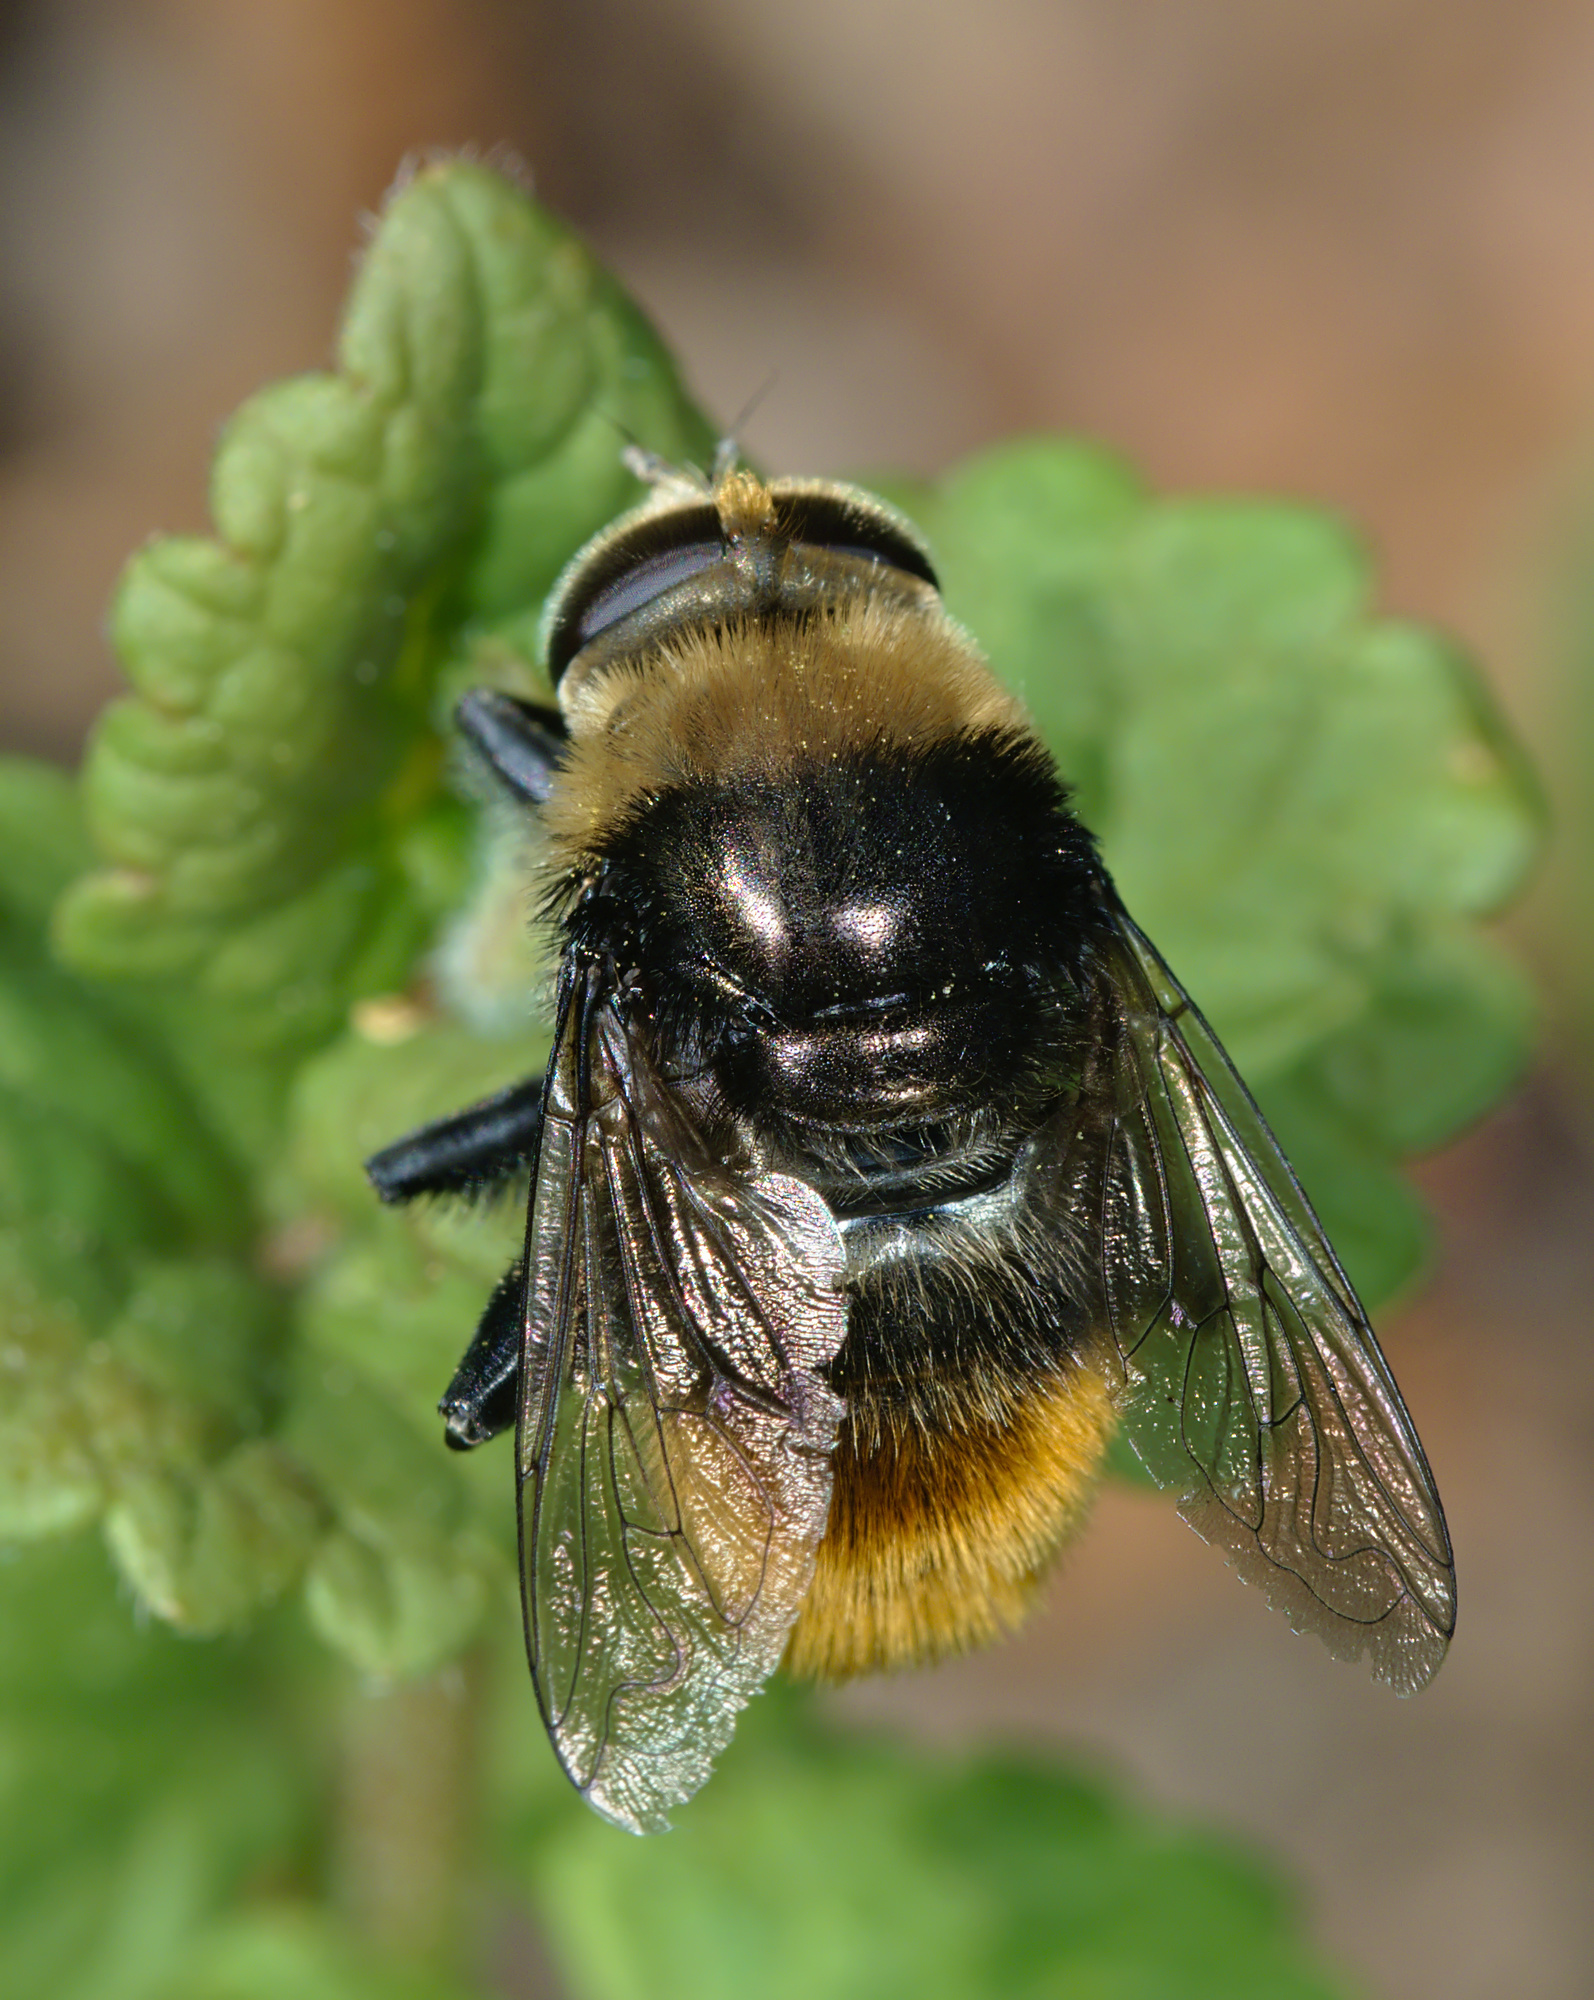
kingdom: Animalia
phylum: Arthropoda
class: Insecta
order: Diptera
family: Syrphidae
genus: Merodon
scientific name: Merodon equestris
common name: Greater bulb-fly
